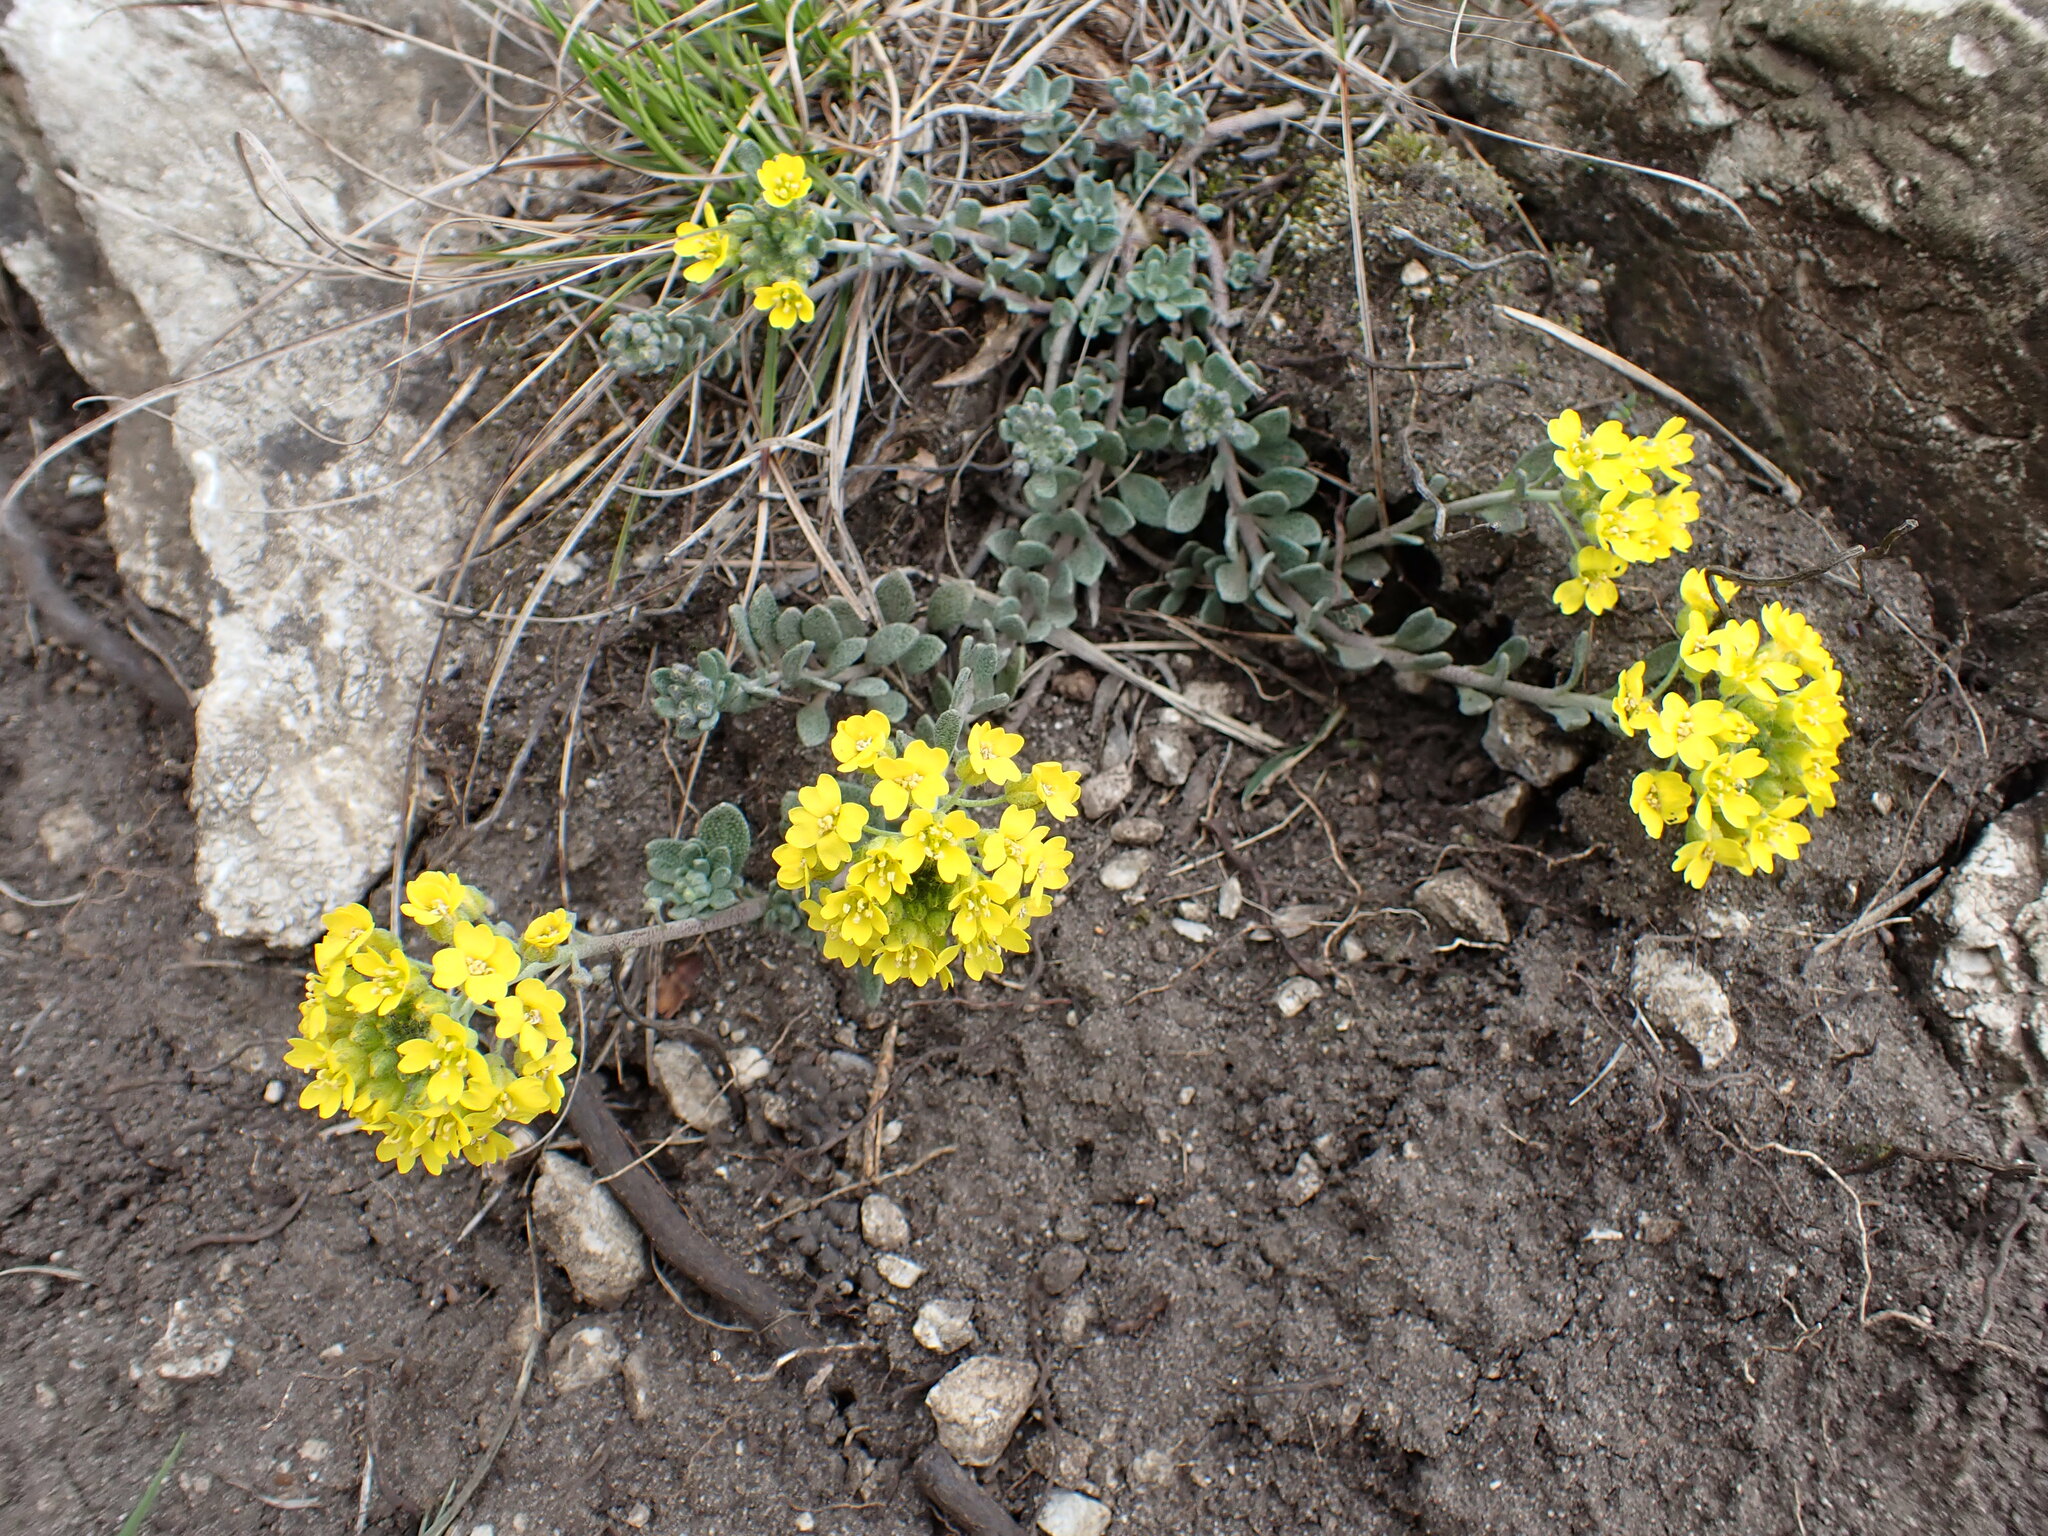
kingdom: Plantae
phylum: Tracheophyta
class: Magnoliopsida
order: Brassicales
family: Brassicaceae
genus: Alyssum
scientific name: Alyssum gmelinii
